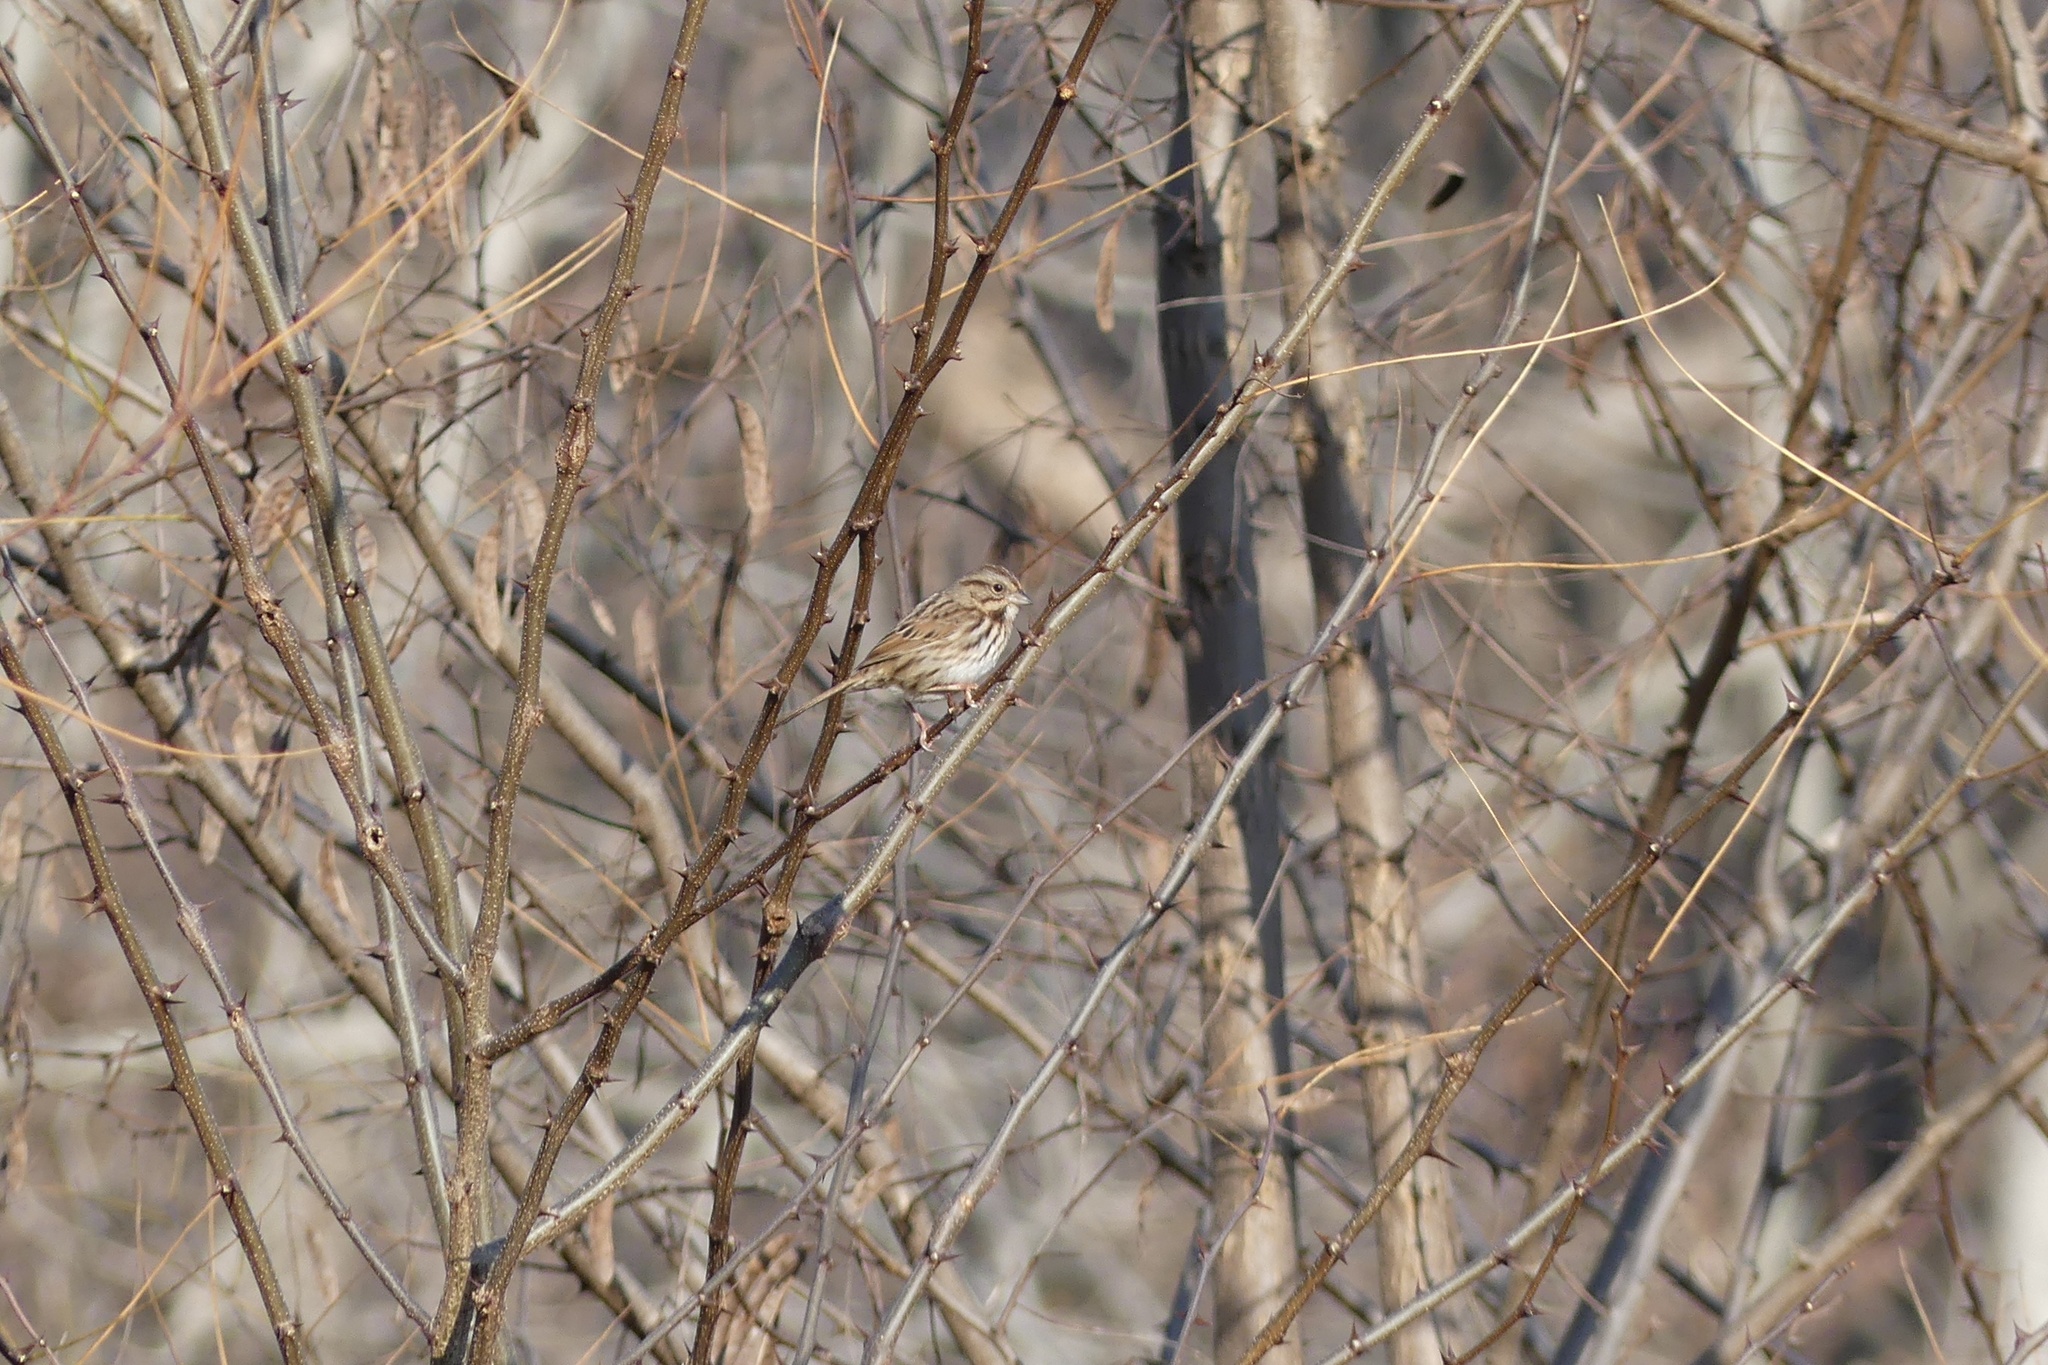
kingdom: Animalia
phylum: Chordata
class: Aves
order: Passeriformes
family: Passerellidae
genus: Melospiza
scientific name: Melospiza melodia
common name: Song sparrow
